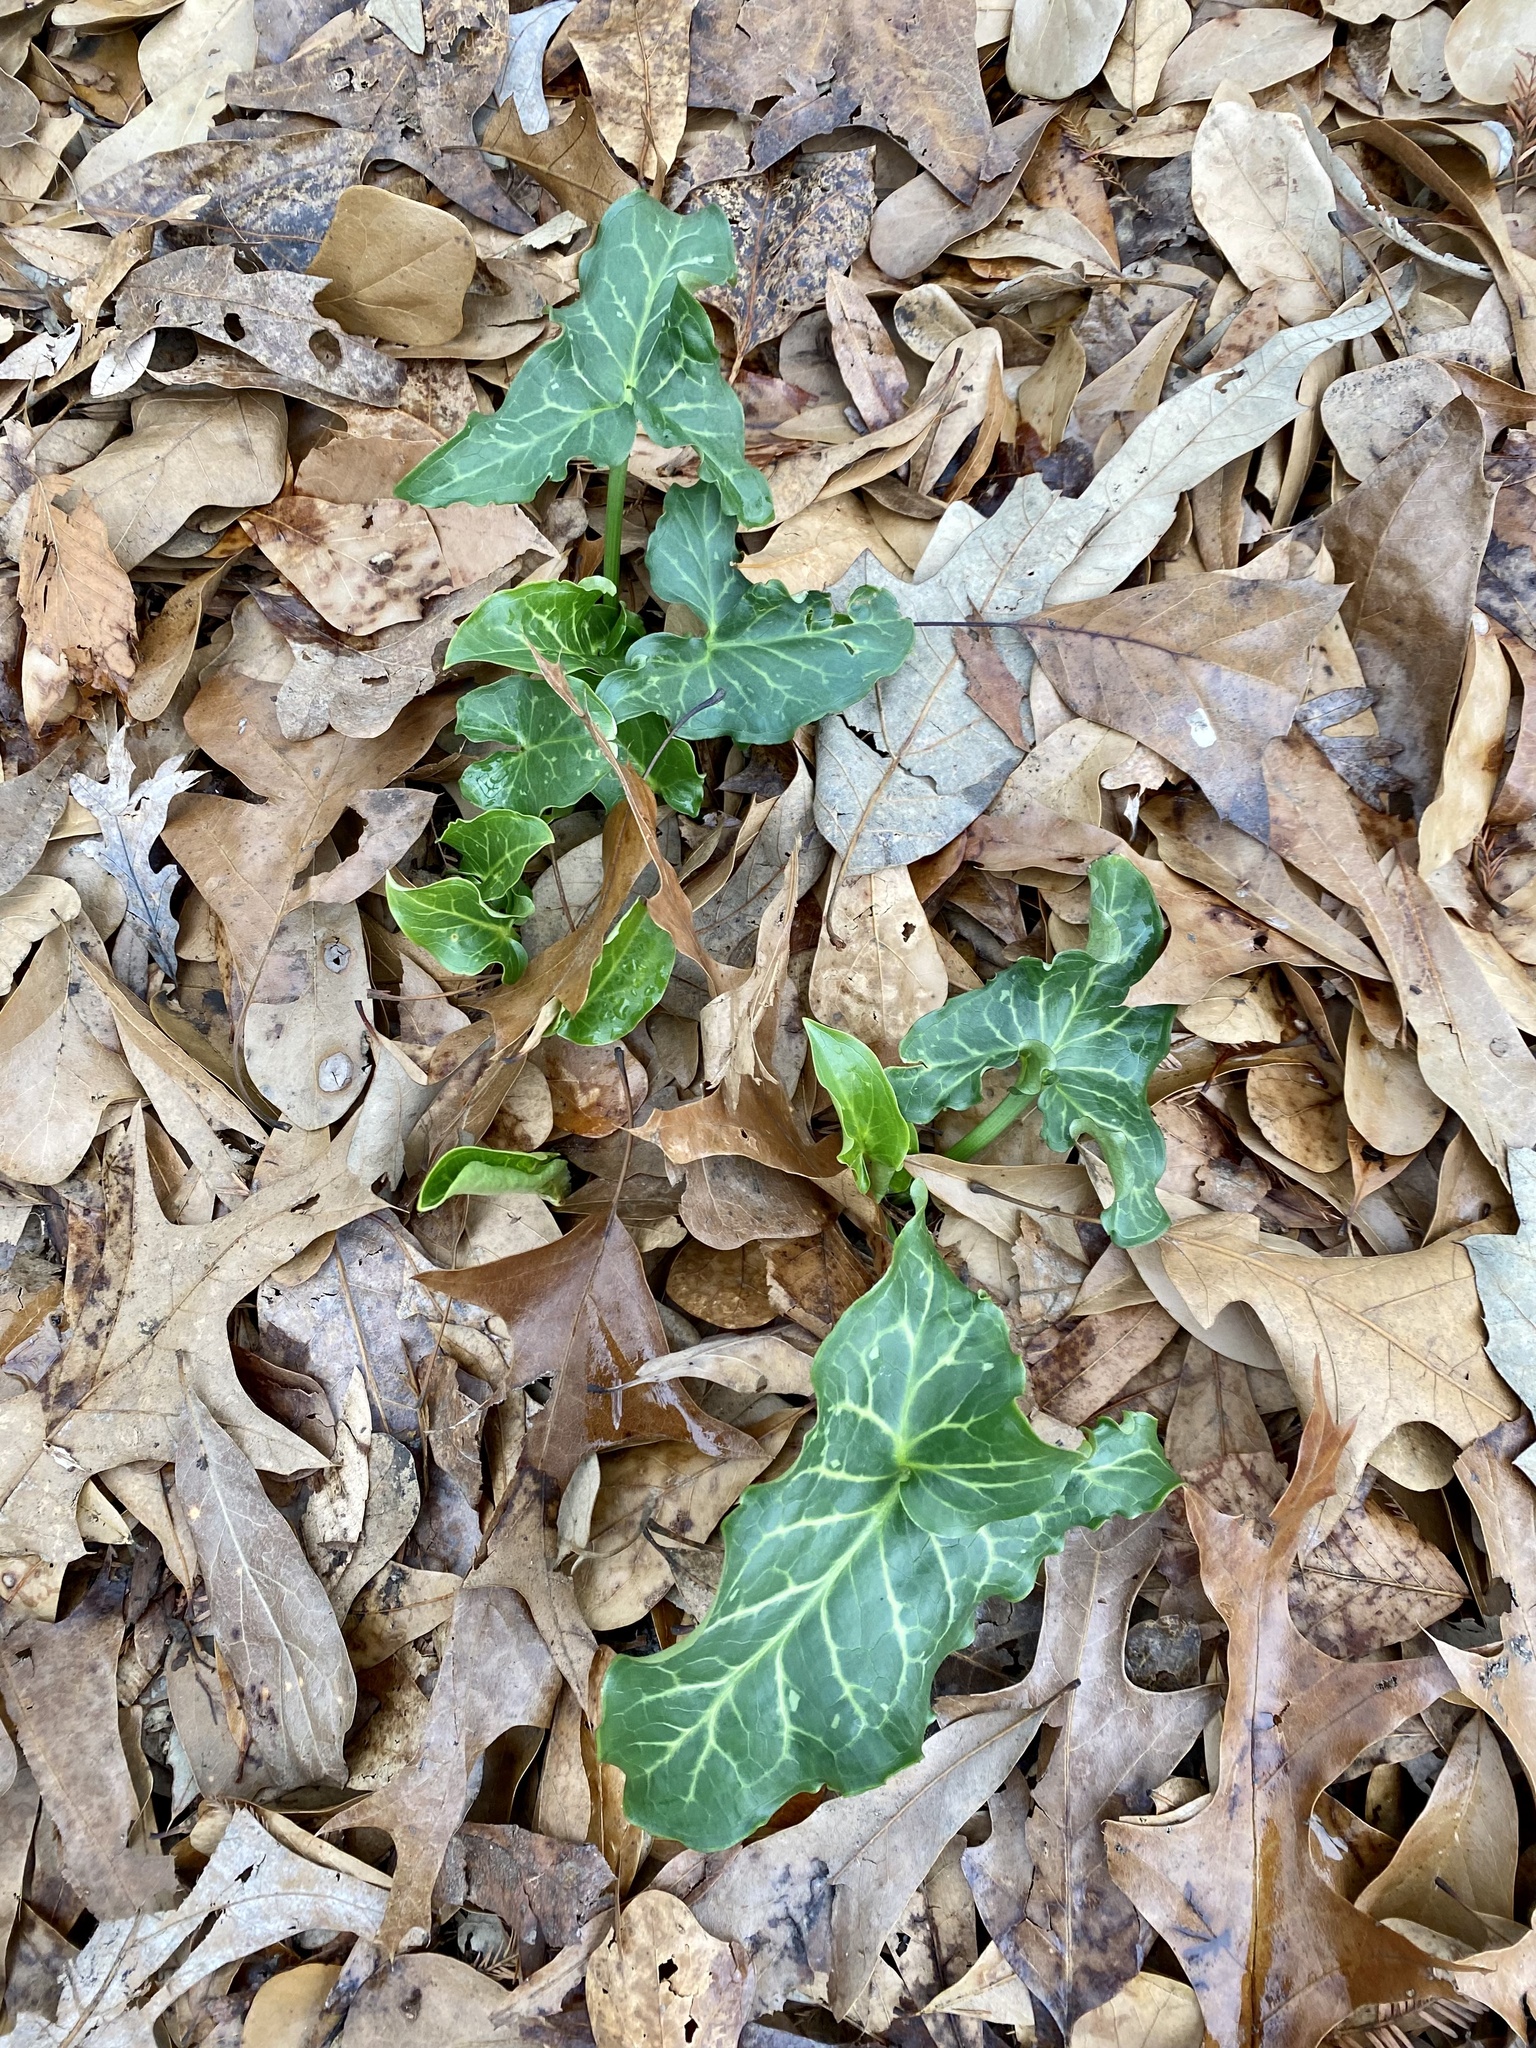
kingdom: Plantae
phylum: Tracheophyta
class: Liliopsida
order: Alismatales
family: Araceae
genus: Arum
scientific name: Arum italicum
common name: Italian lords-and-ladies
